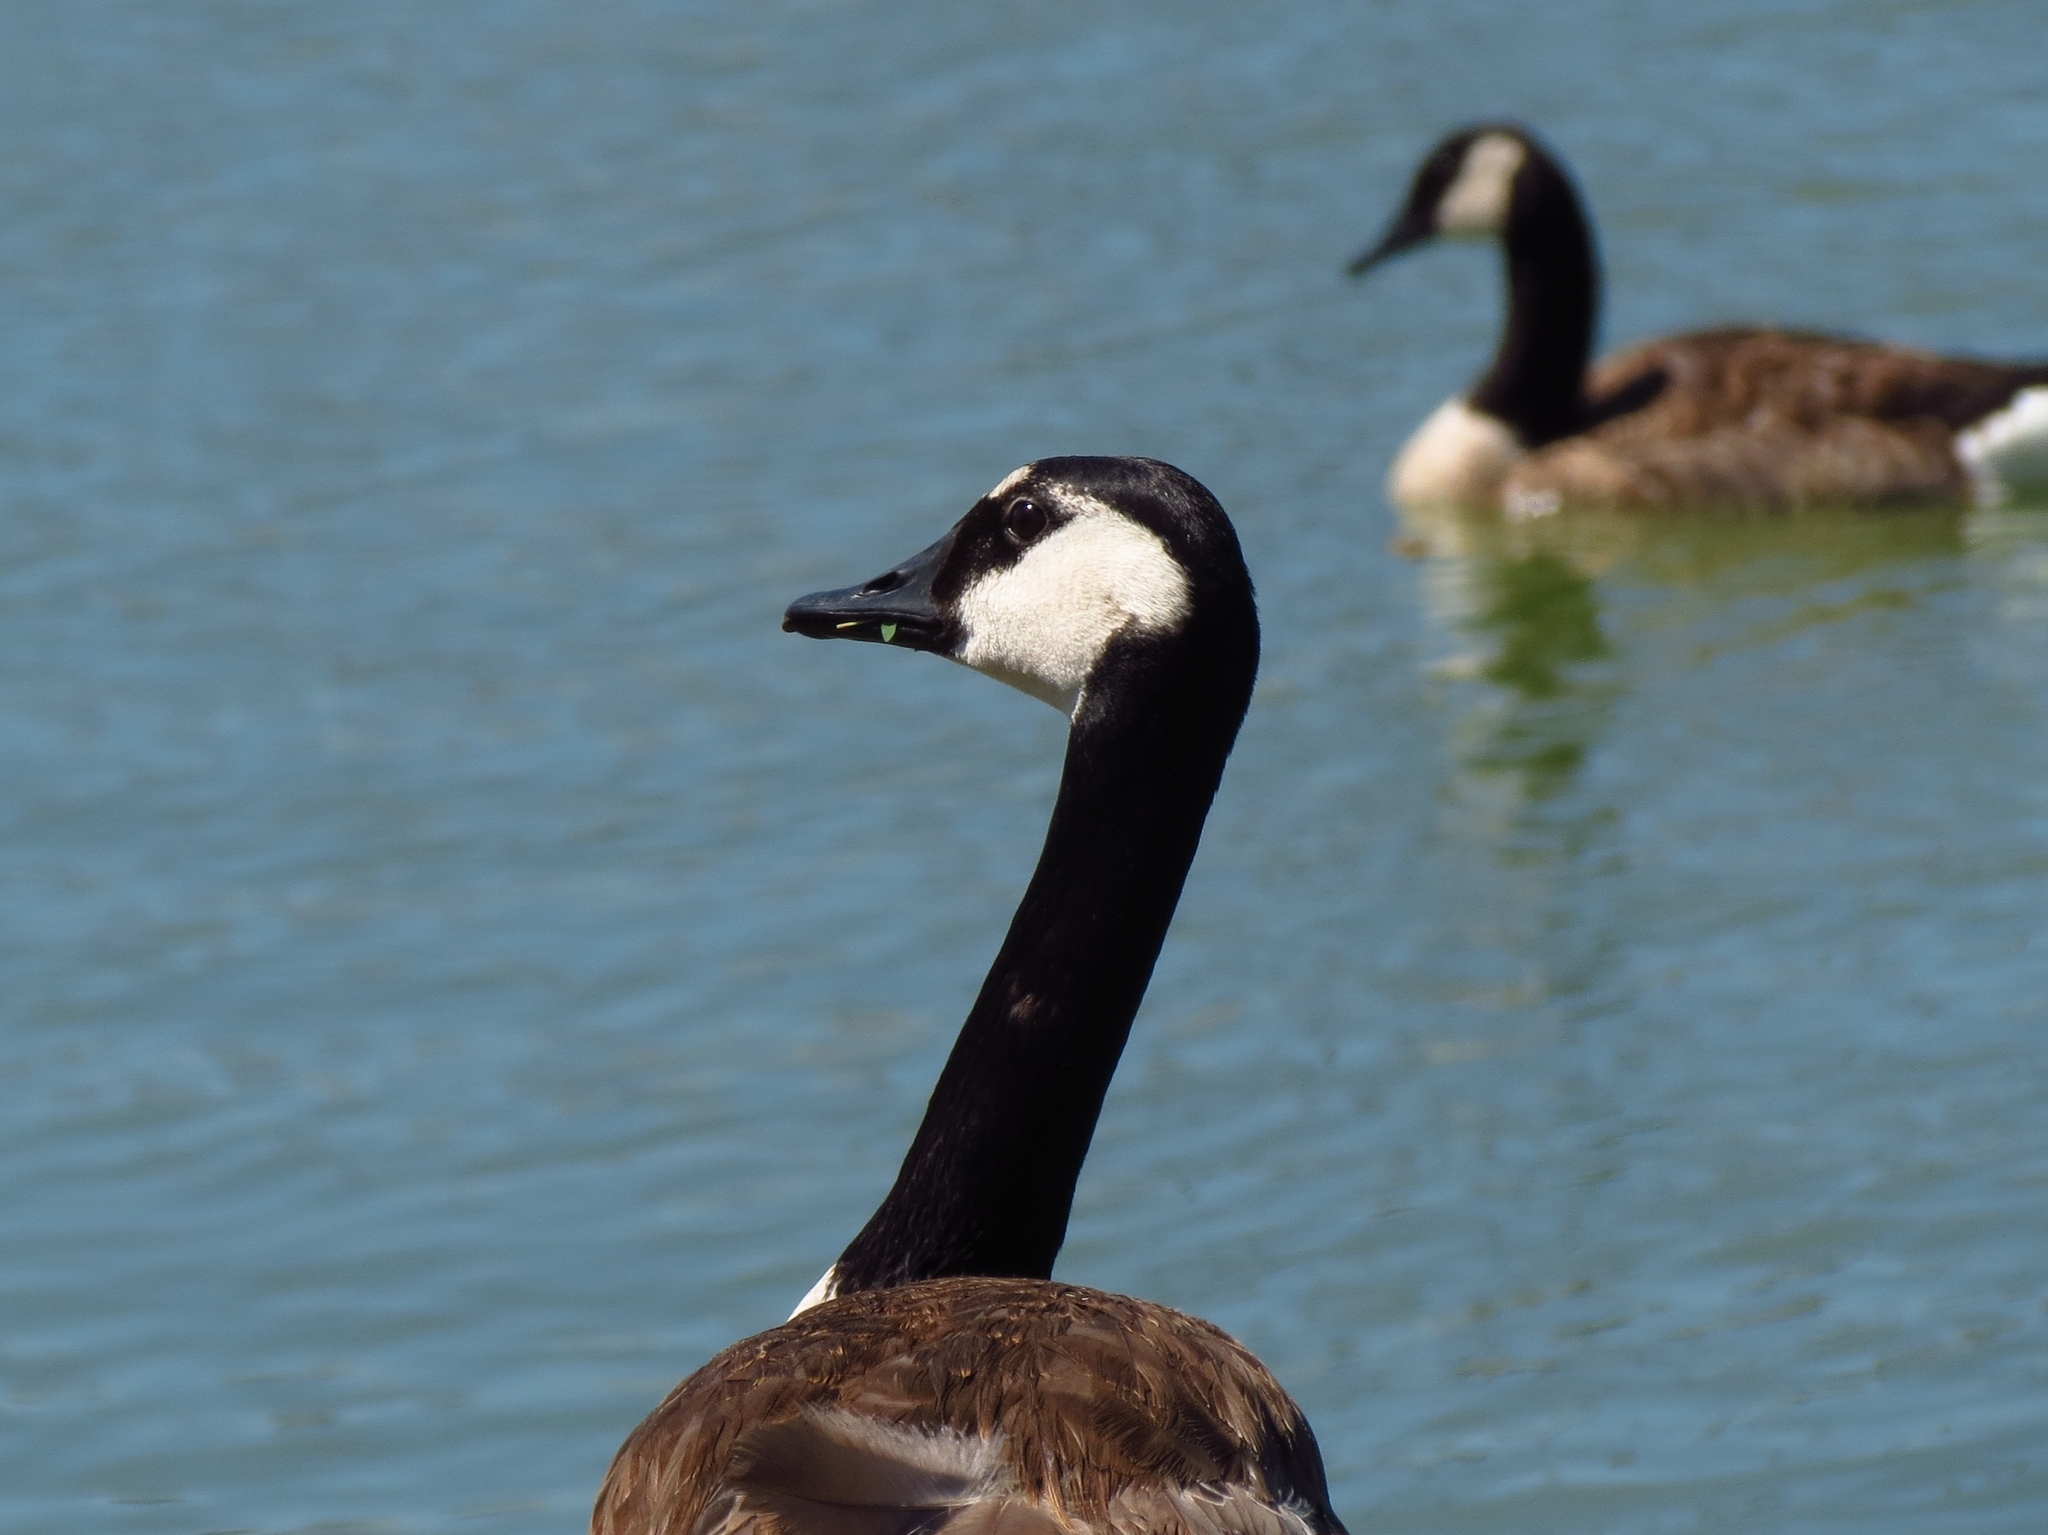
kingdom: Animalia
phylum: Chordata
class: Aves
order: Anseriformes
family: Anatidae
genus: Branta
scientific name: Branta canadensis
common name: Canada goose
